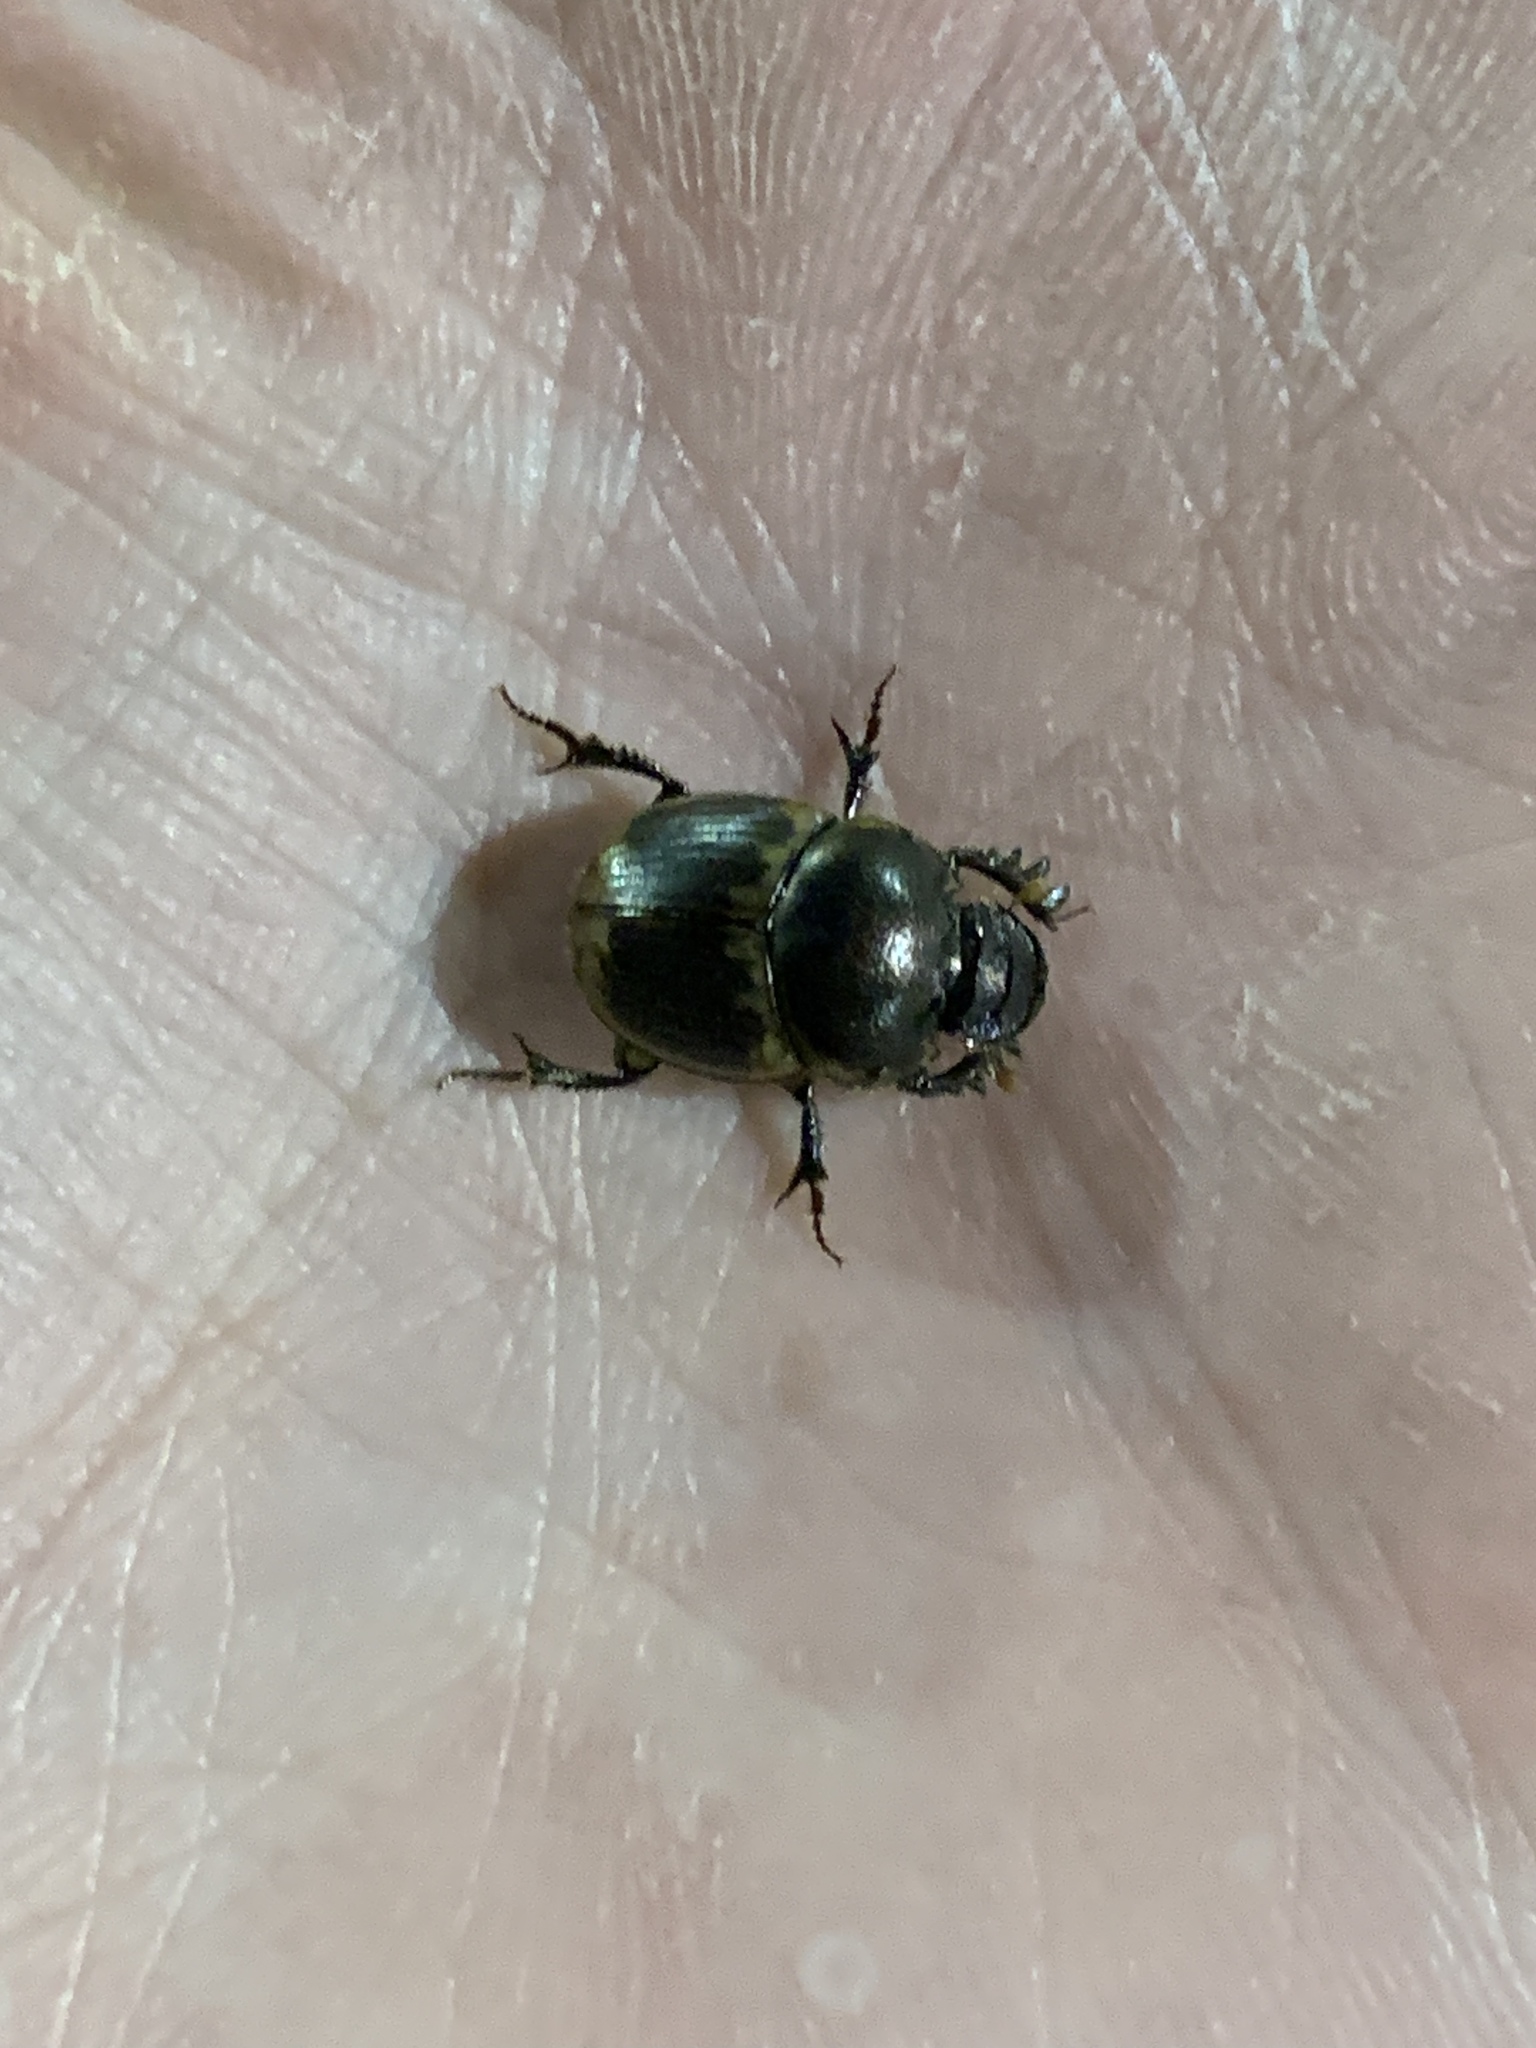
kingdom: Animalia
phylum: Arthropoda
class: Insecta
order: Coleoptera
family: Scarabaeidae
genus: Digitonthophagus
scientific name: Digitonthophagus gazella
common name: Brown dung beetle
